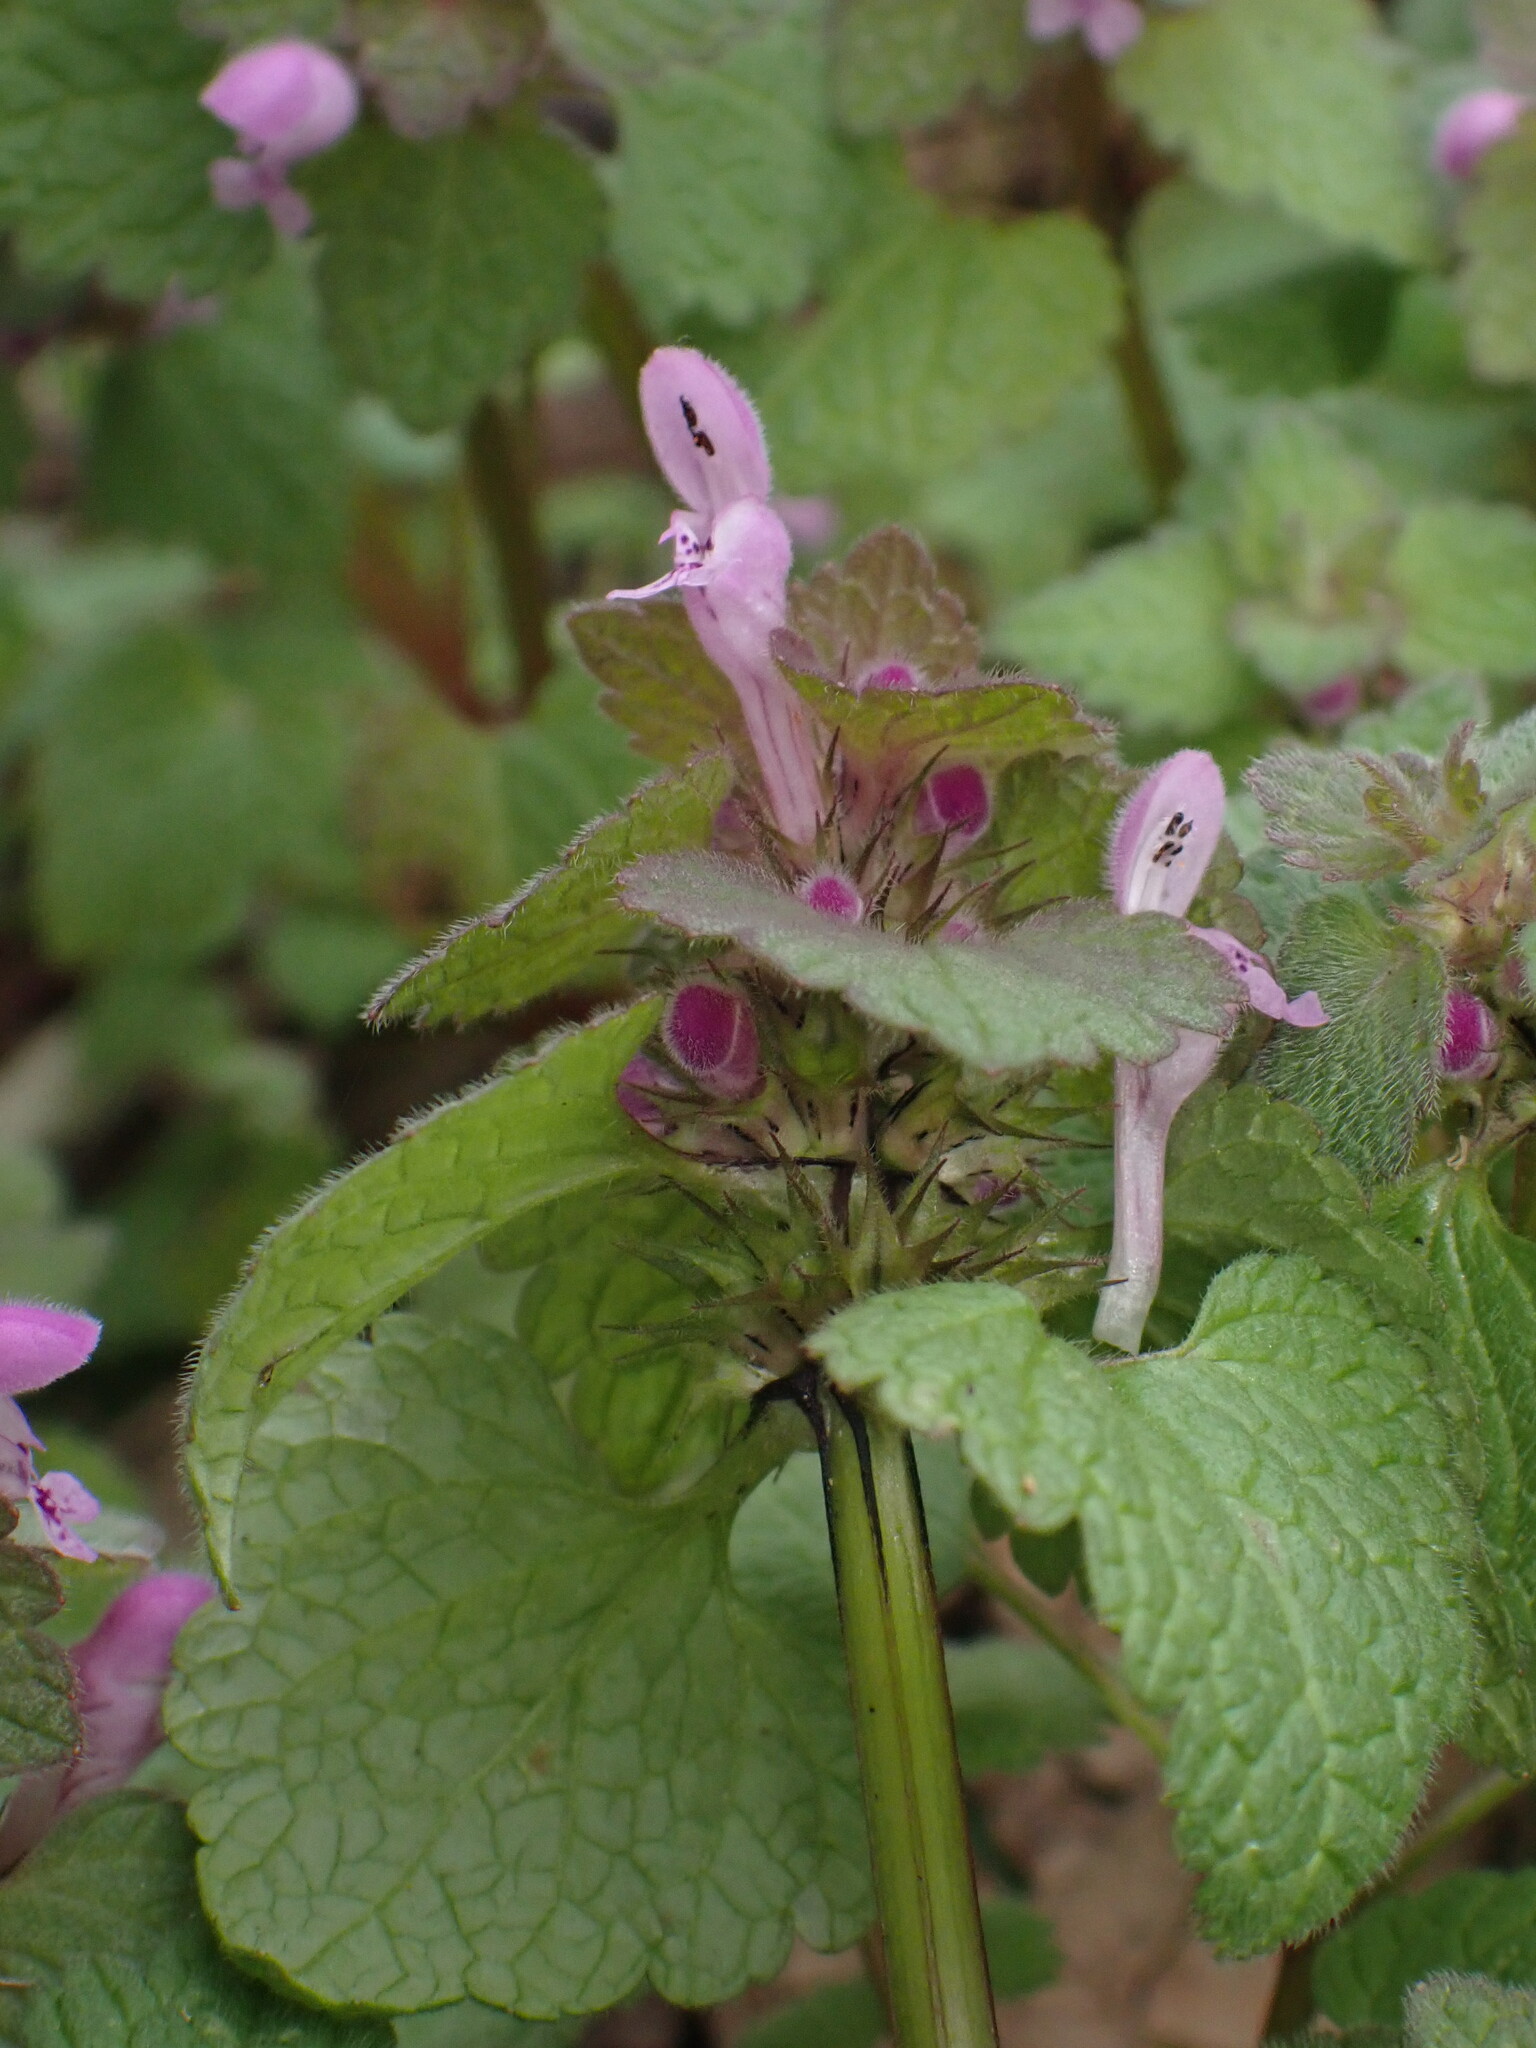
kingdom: Plantae
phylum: Tracheophyta
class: Magnoliopsida
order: Lamiales
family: Lamiaceae
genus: Lamium
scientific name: Lamium purpureum
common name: Red dead-nettle
